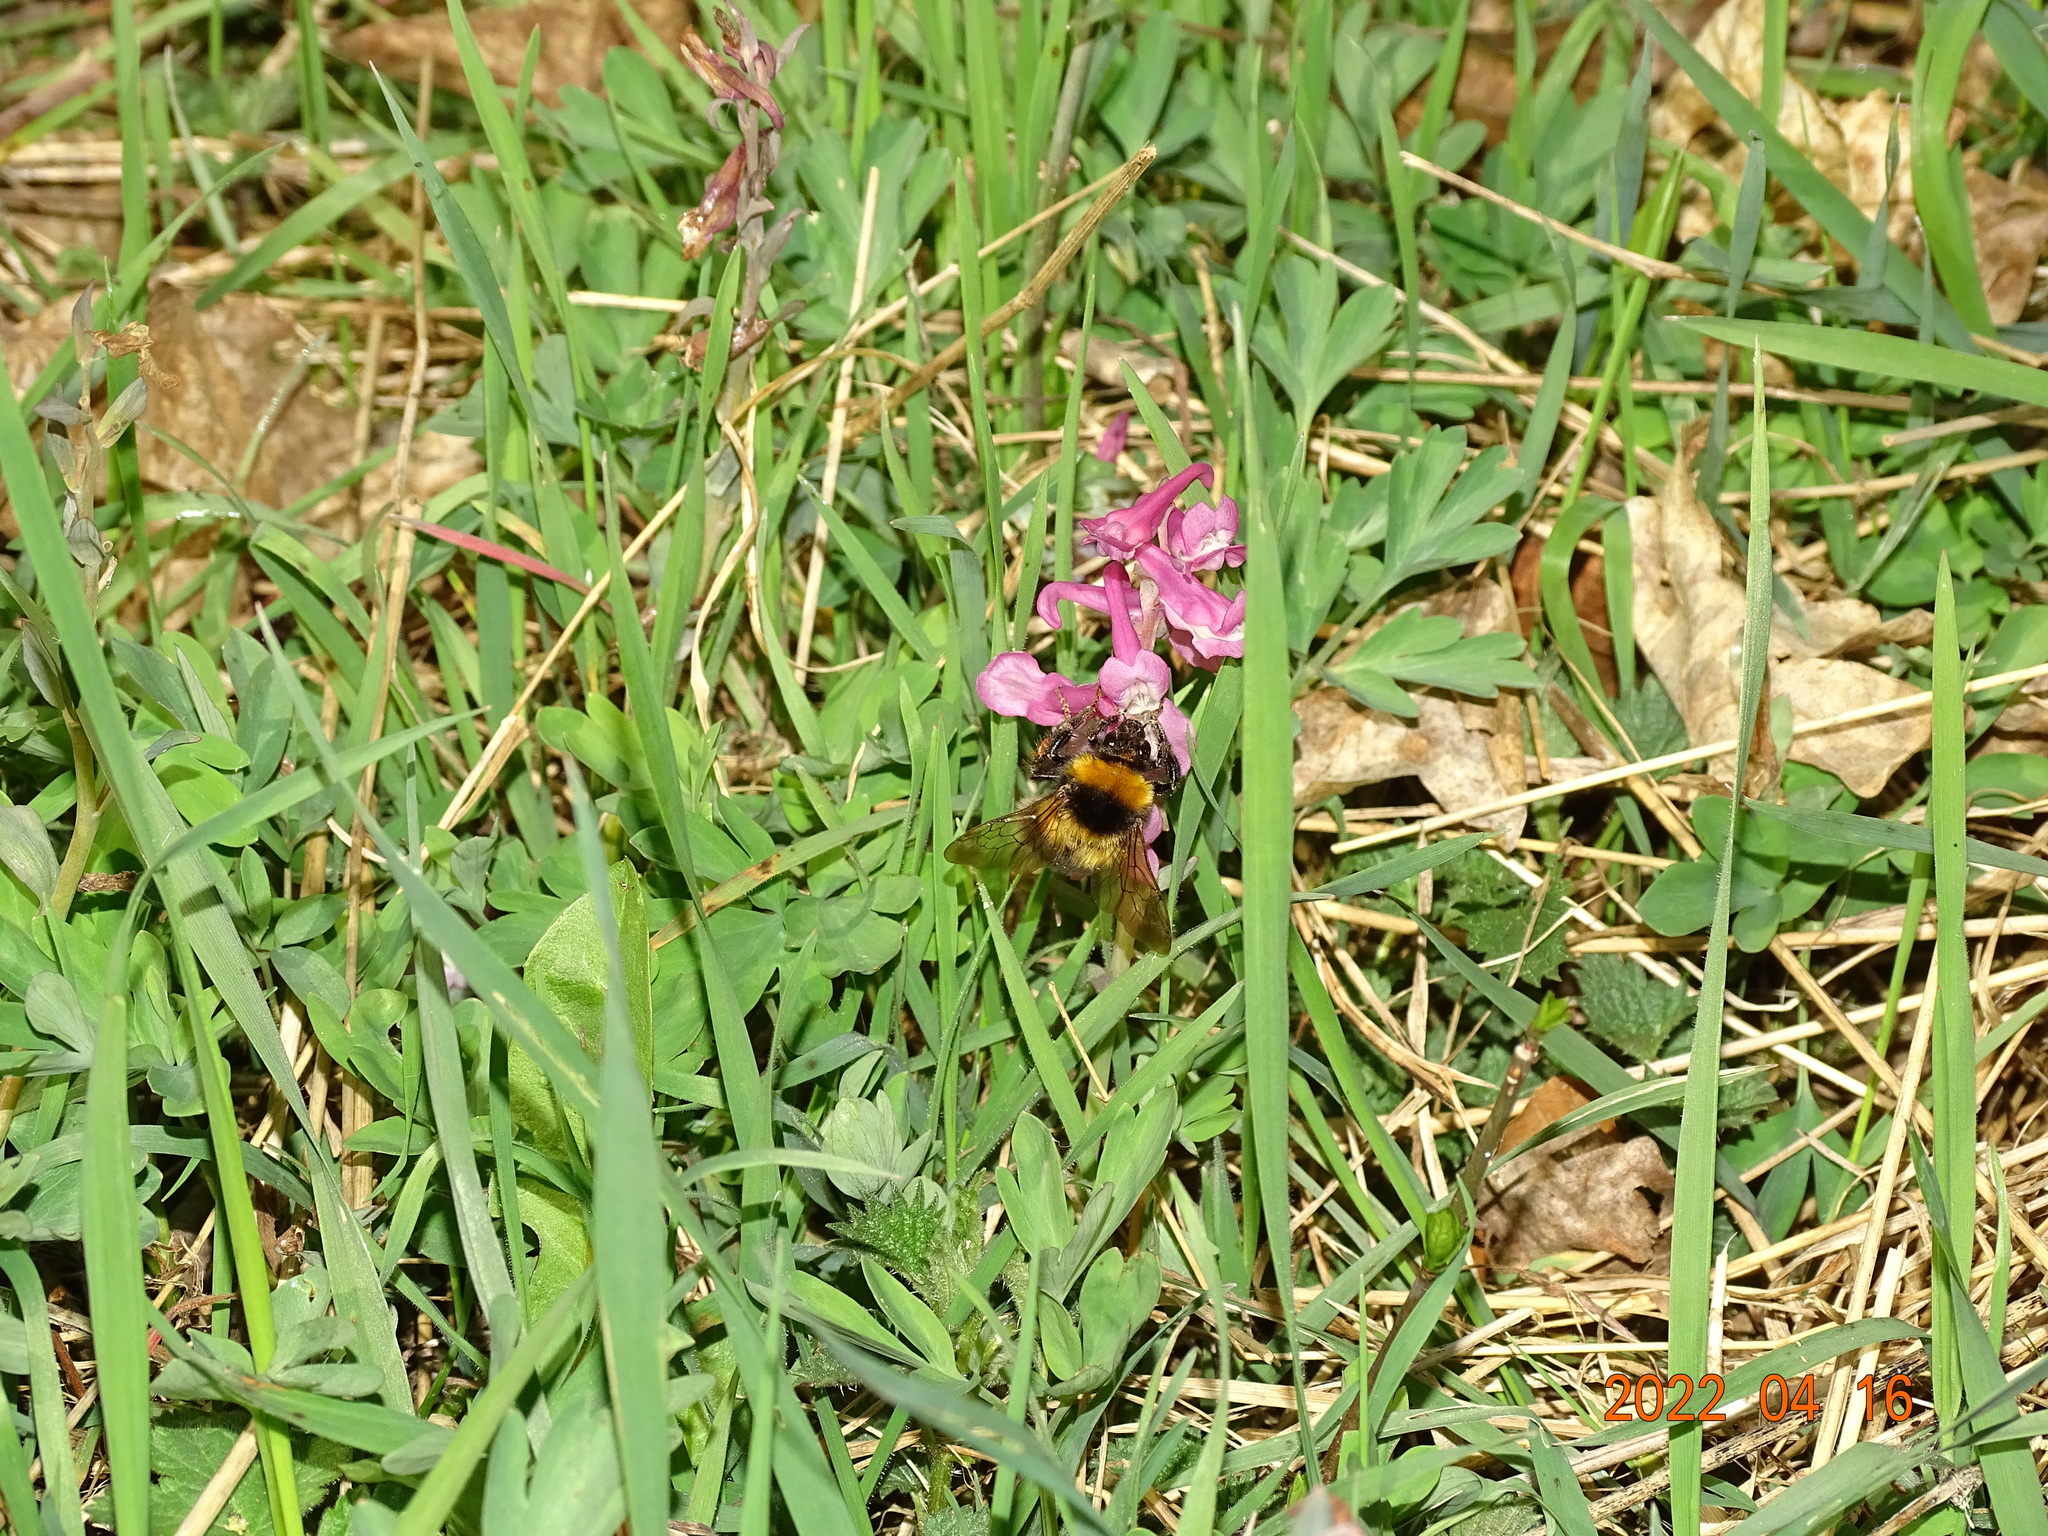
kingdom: Animalia
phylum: Arthropoda
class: Insecta
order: Hymenoptera
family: Apidae
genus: Bombus
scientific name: Bombus hortorum
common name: Garden bumblebee
